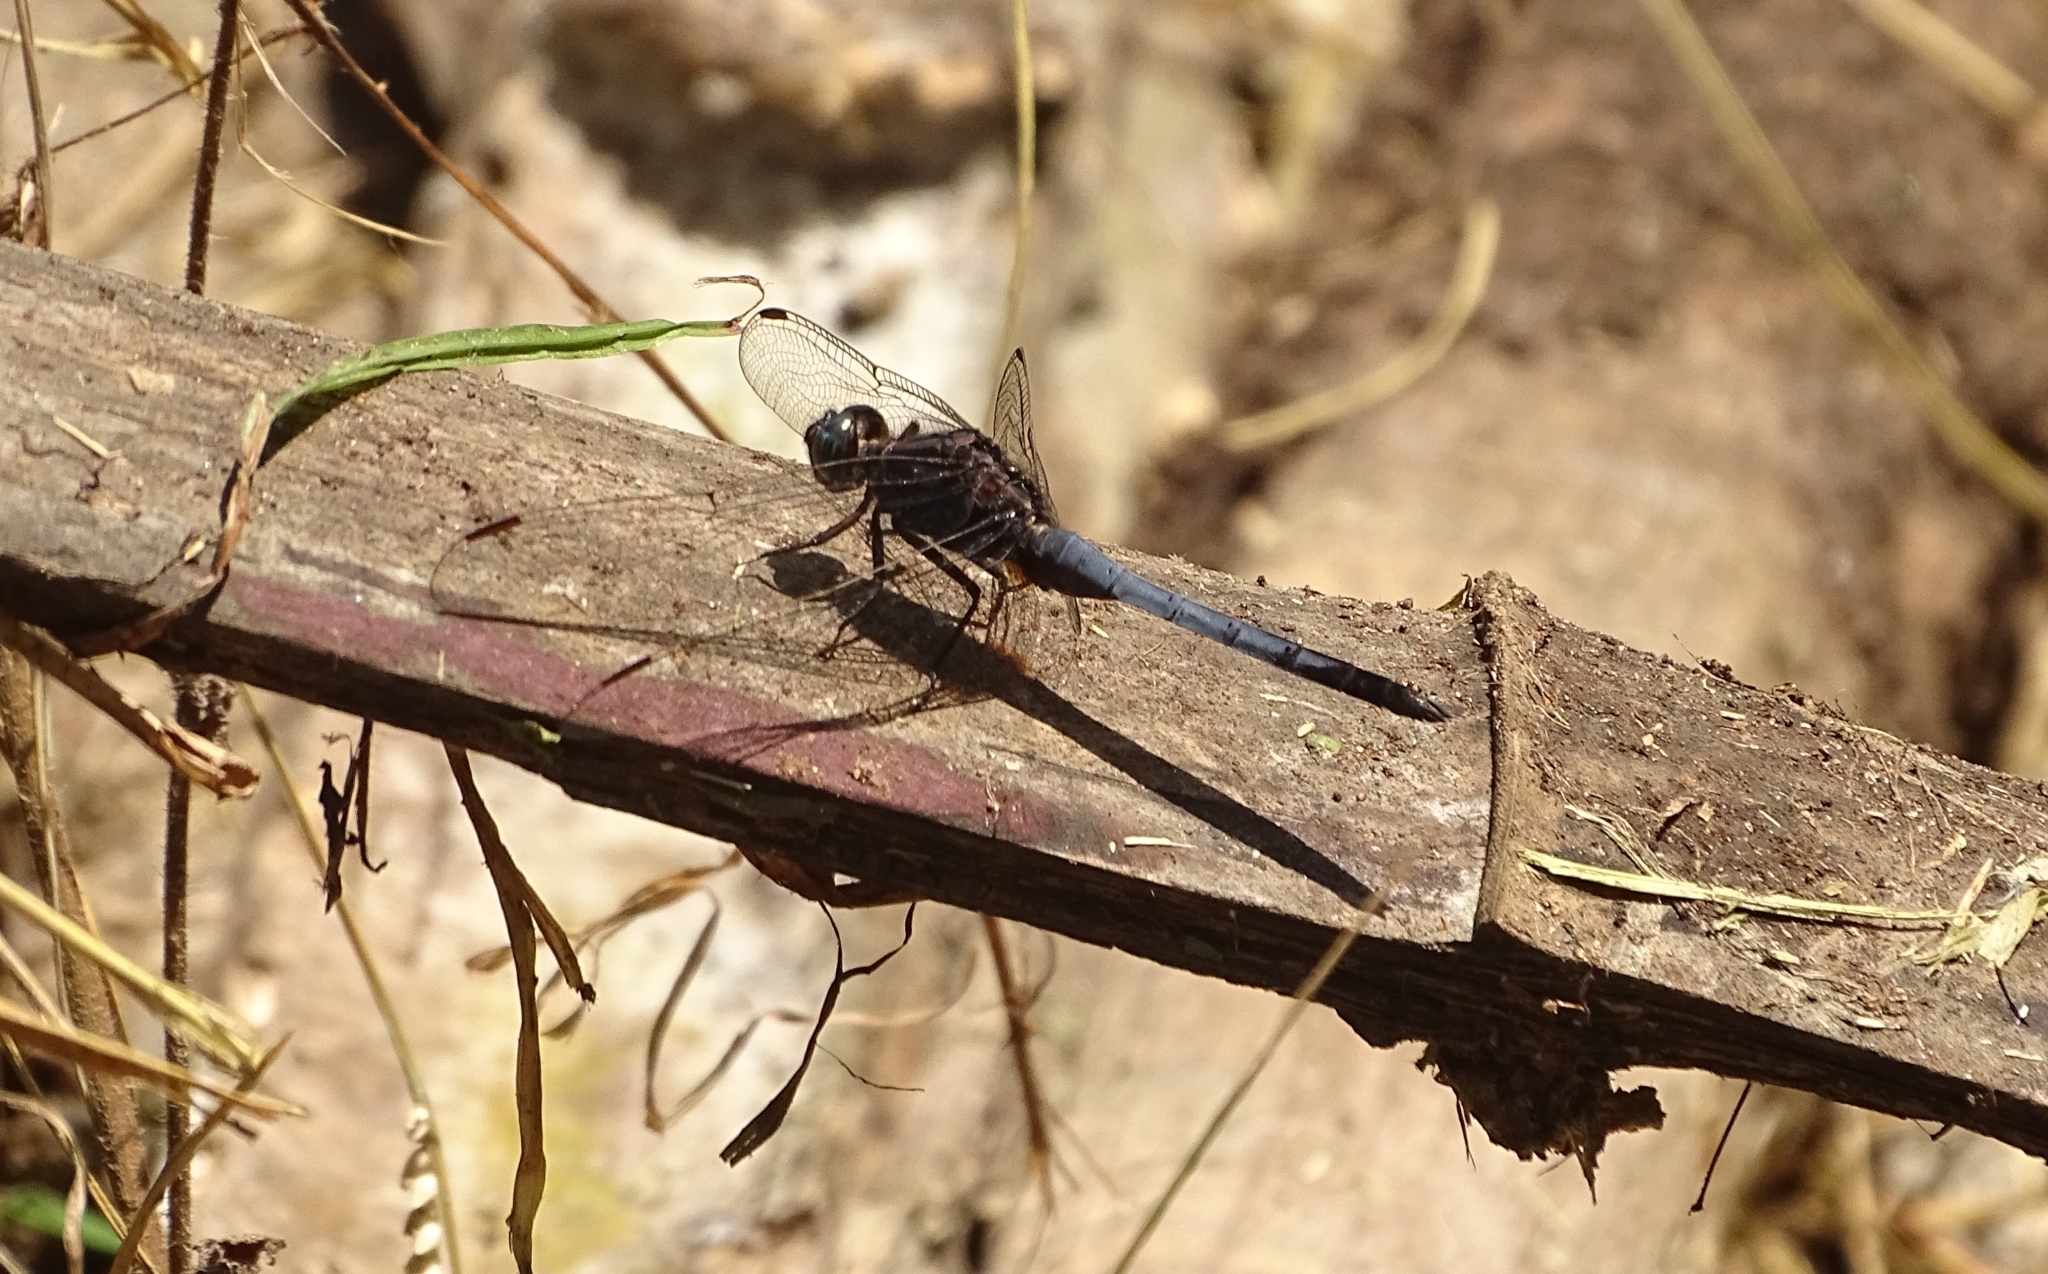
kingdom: Animalia
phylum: Arthropoda
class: Insecta
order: Odonata
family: Libellulidae
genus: Orthetrum
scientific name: Orthetrum glaucum
